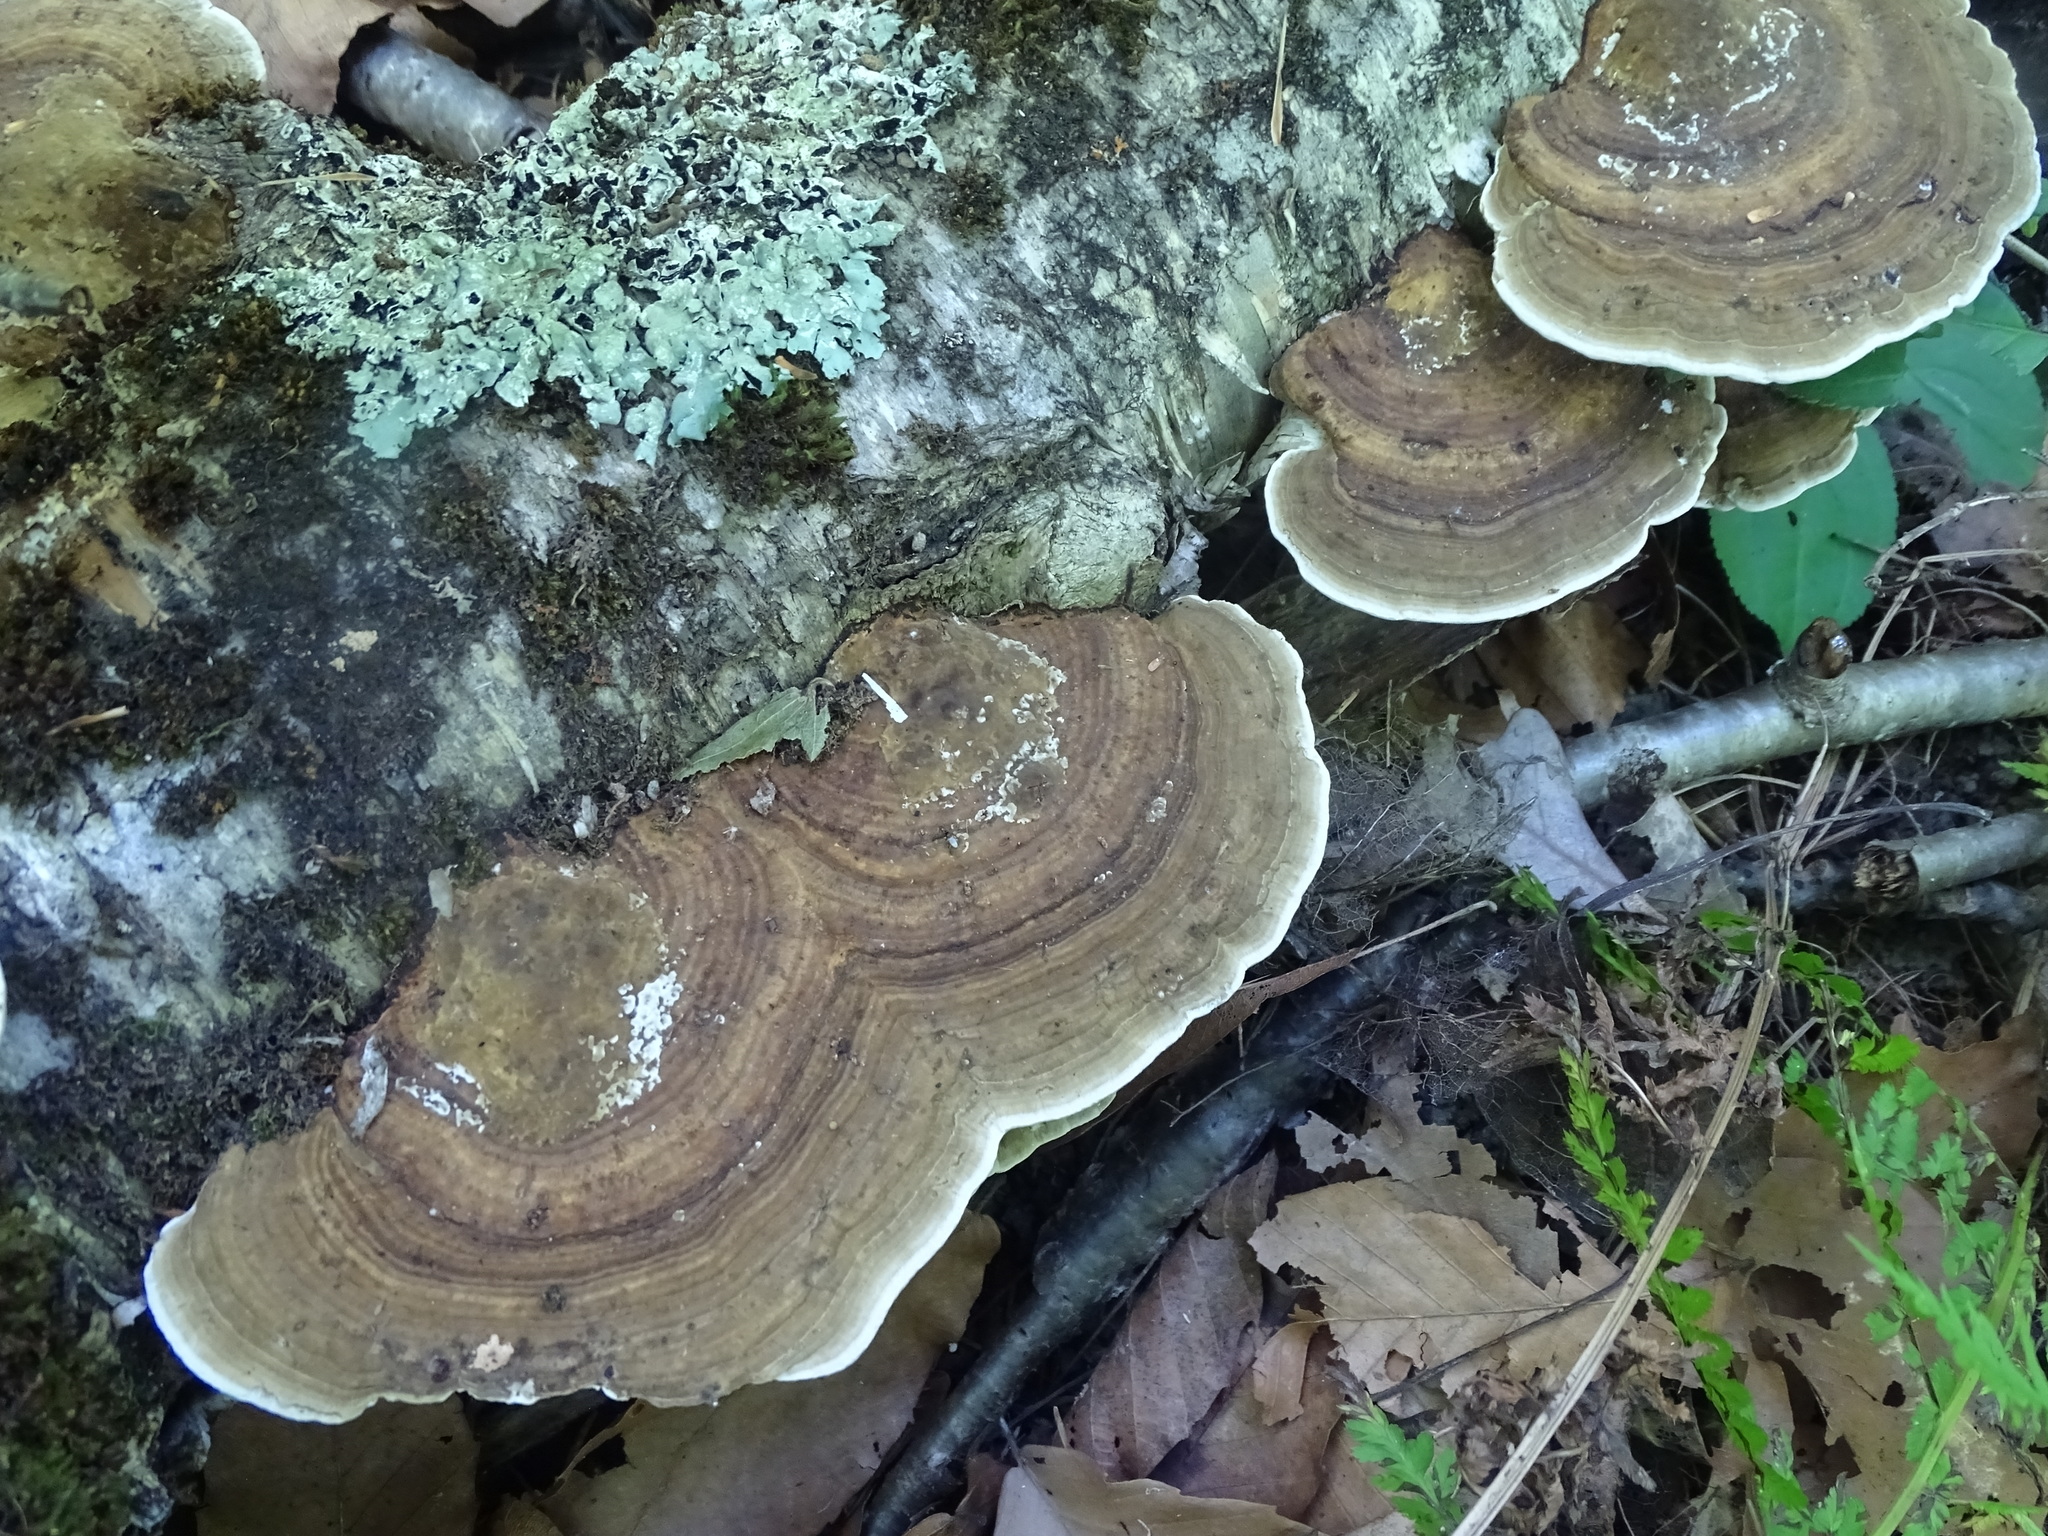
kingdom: Fungi
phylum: Basidiomycota
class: Agaricomycetes
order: Polyporales
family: Polyporaceae
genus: Daedaleopsis
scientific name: Daedaleopsis confragosa
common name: Blushing bracket
